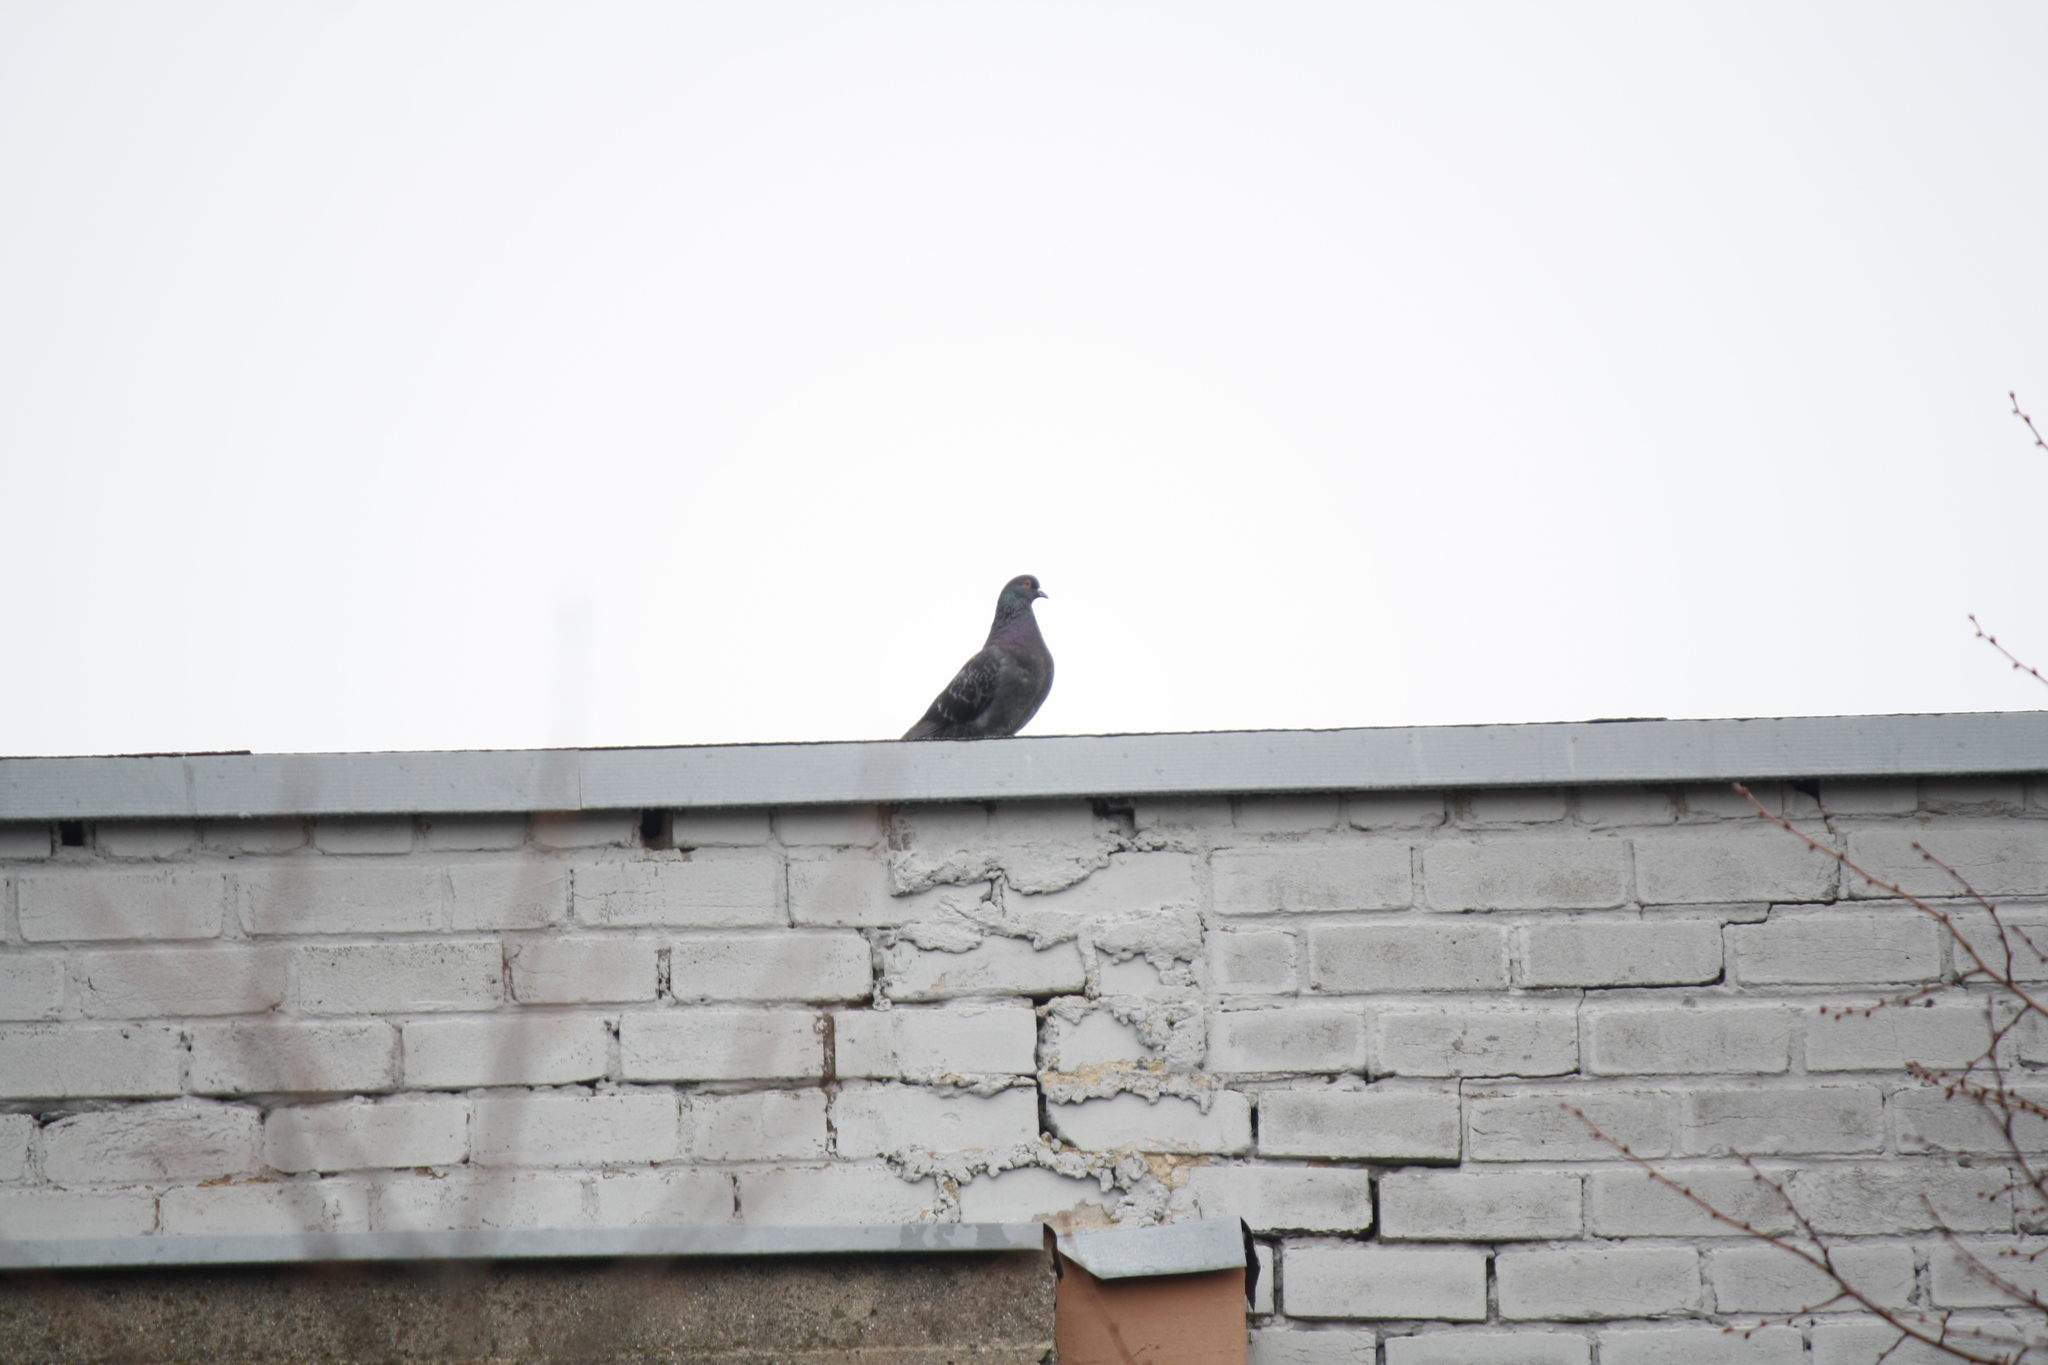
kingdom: Animalia
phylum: Chordata
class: Aves
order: Columbiformes
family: Columbidae
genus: Columba
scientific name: Columba livia
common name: Rock pigeon
